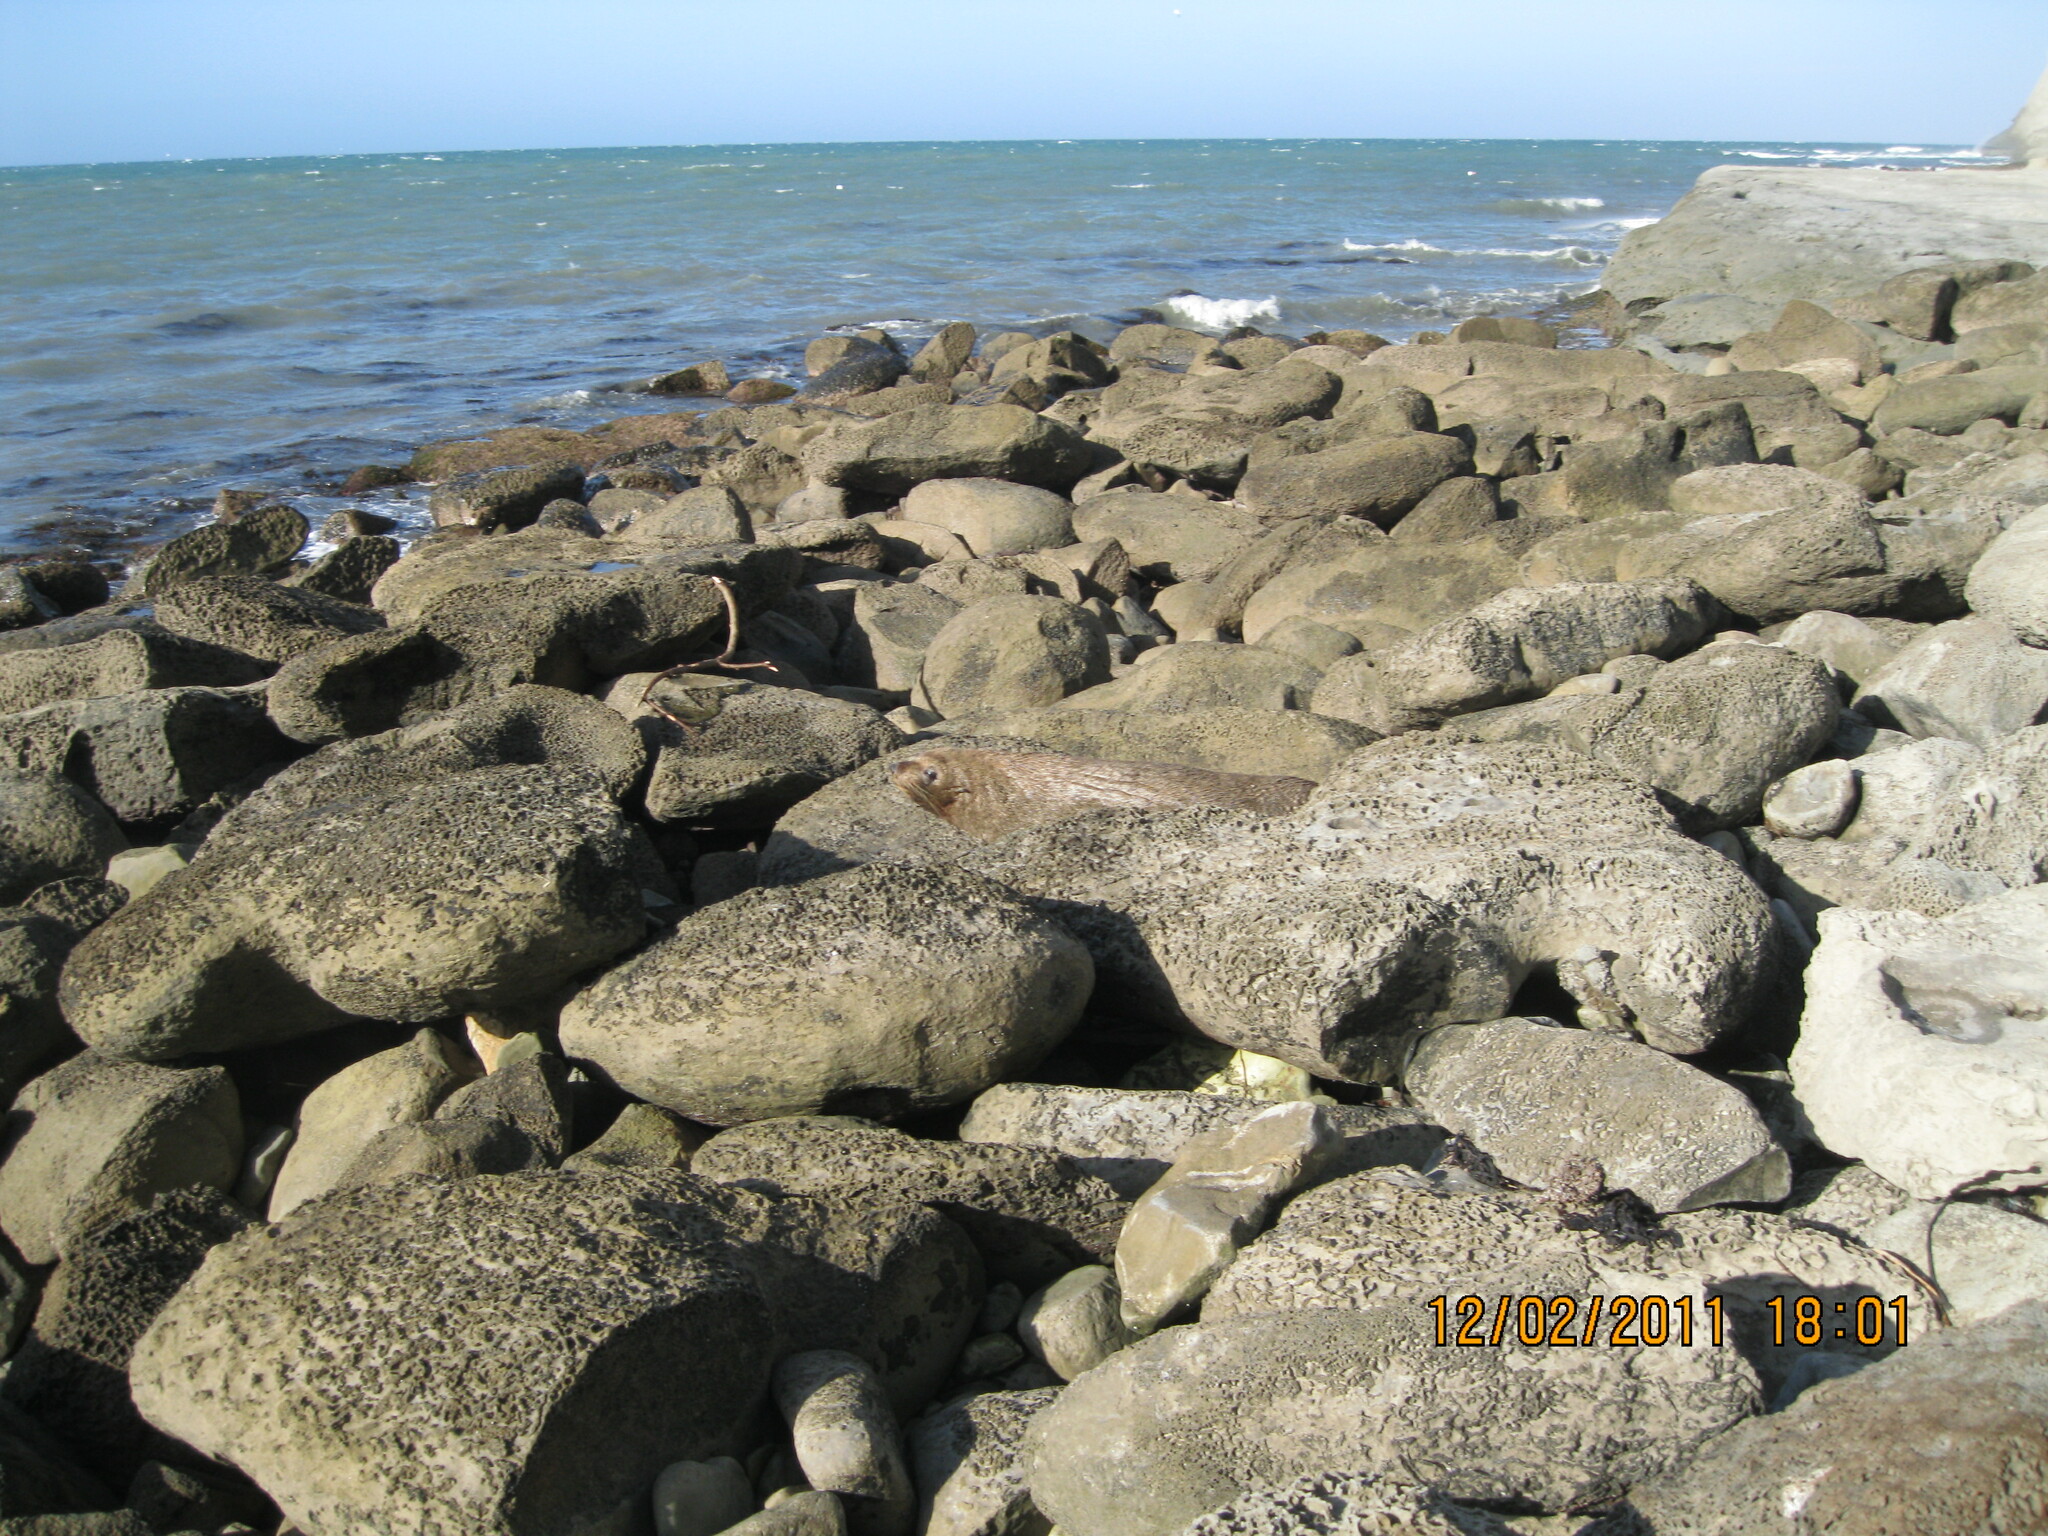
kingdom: Animalia
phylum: Chordata
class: Mammalia
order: Carnivora
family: Otariidae
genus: Arctocephalus
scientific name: Arctocephalus forsteri
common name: New zealand fur seal
